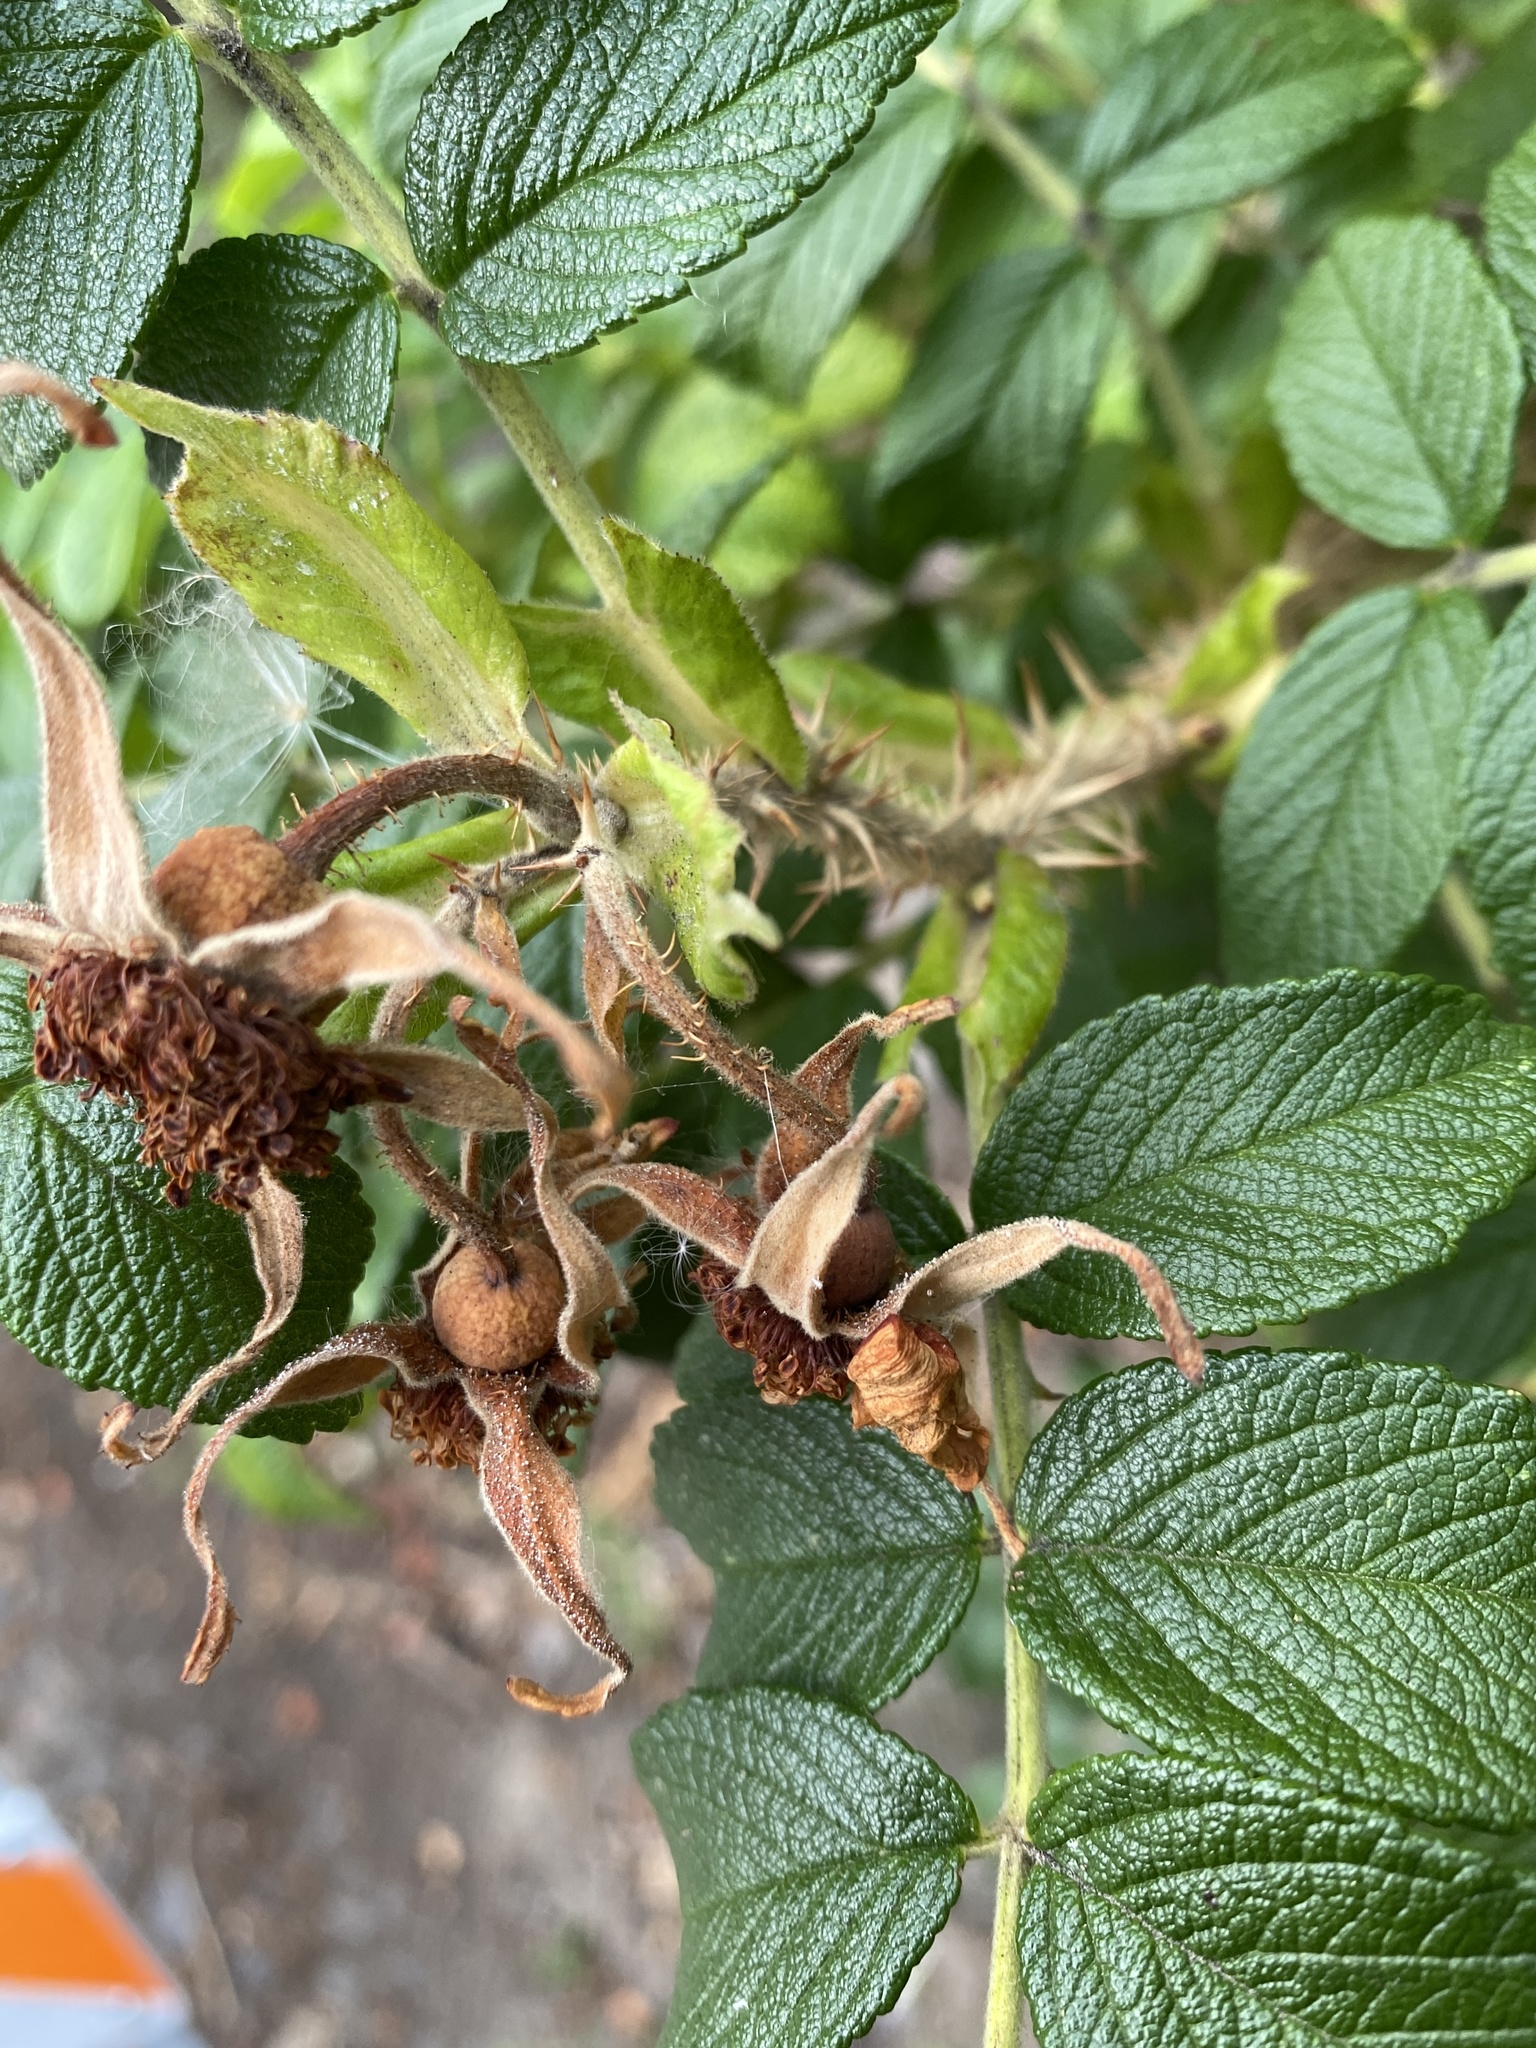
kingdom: Plantae
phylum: Tracheophyta
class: Magnoliopsida
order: Rosales
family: Rosaceae
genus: Rosa
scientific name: Rosa rugosa
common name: Japanese rose
